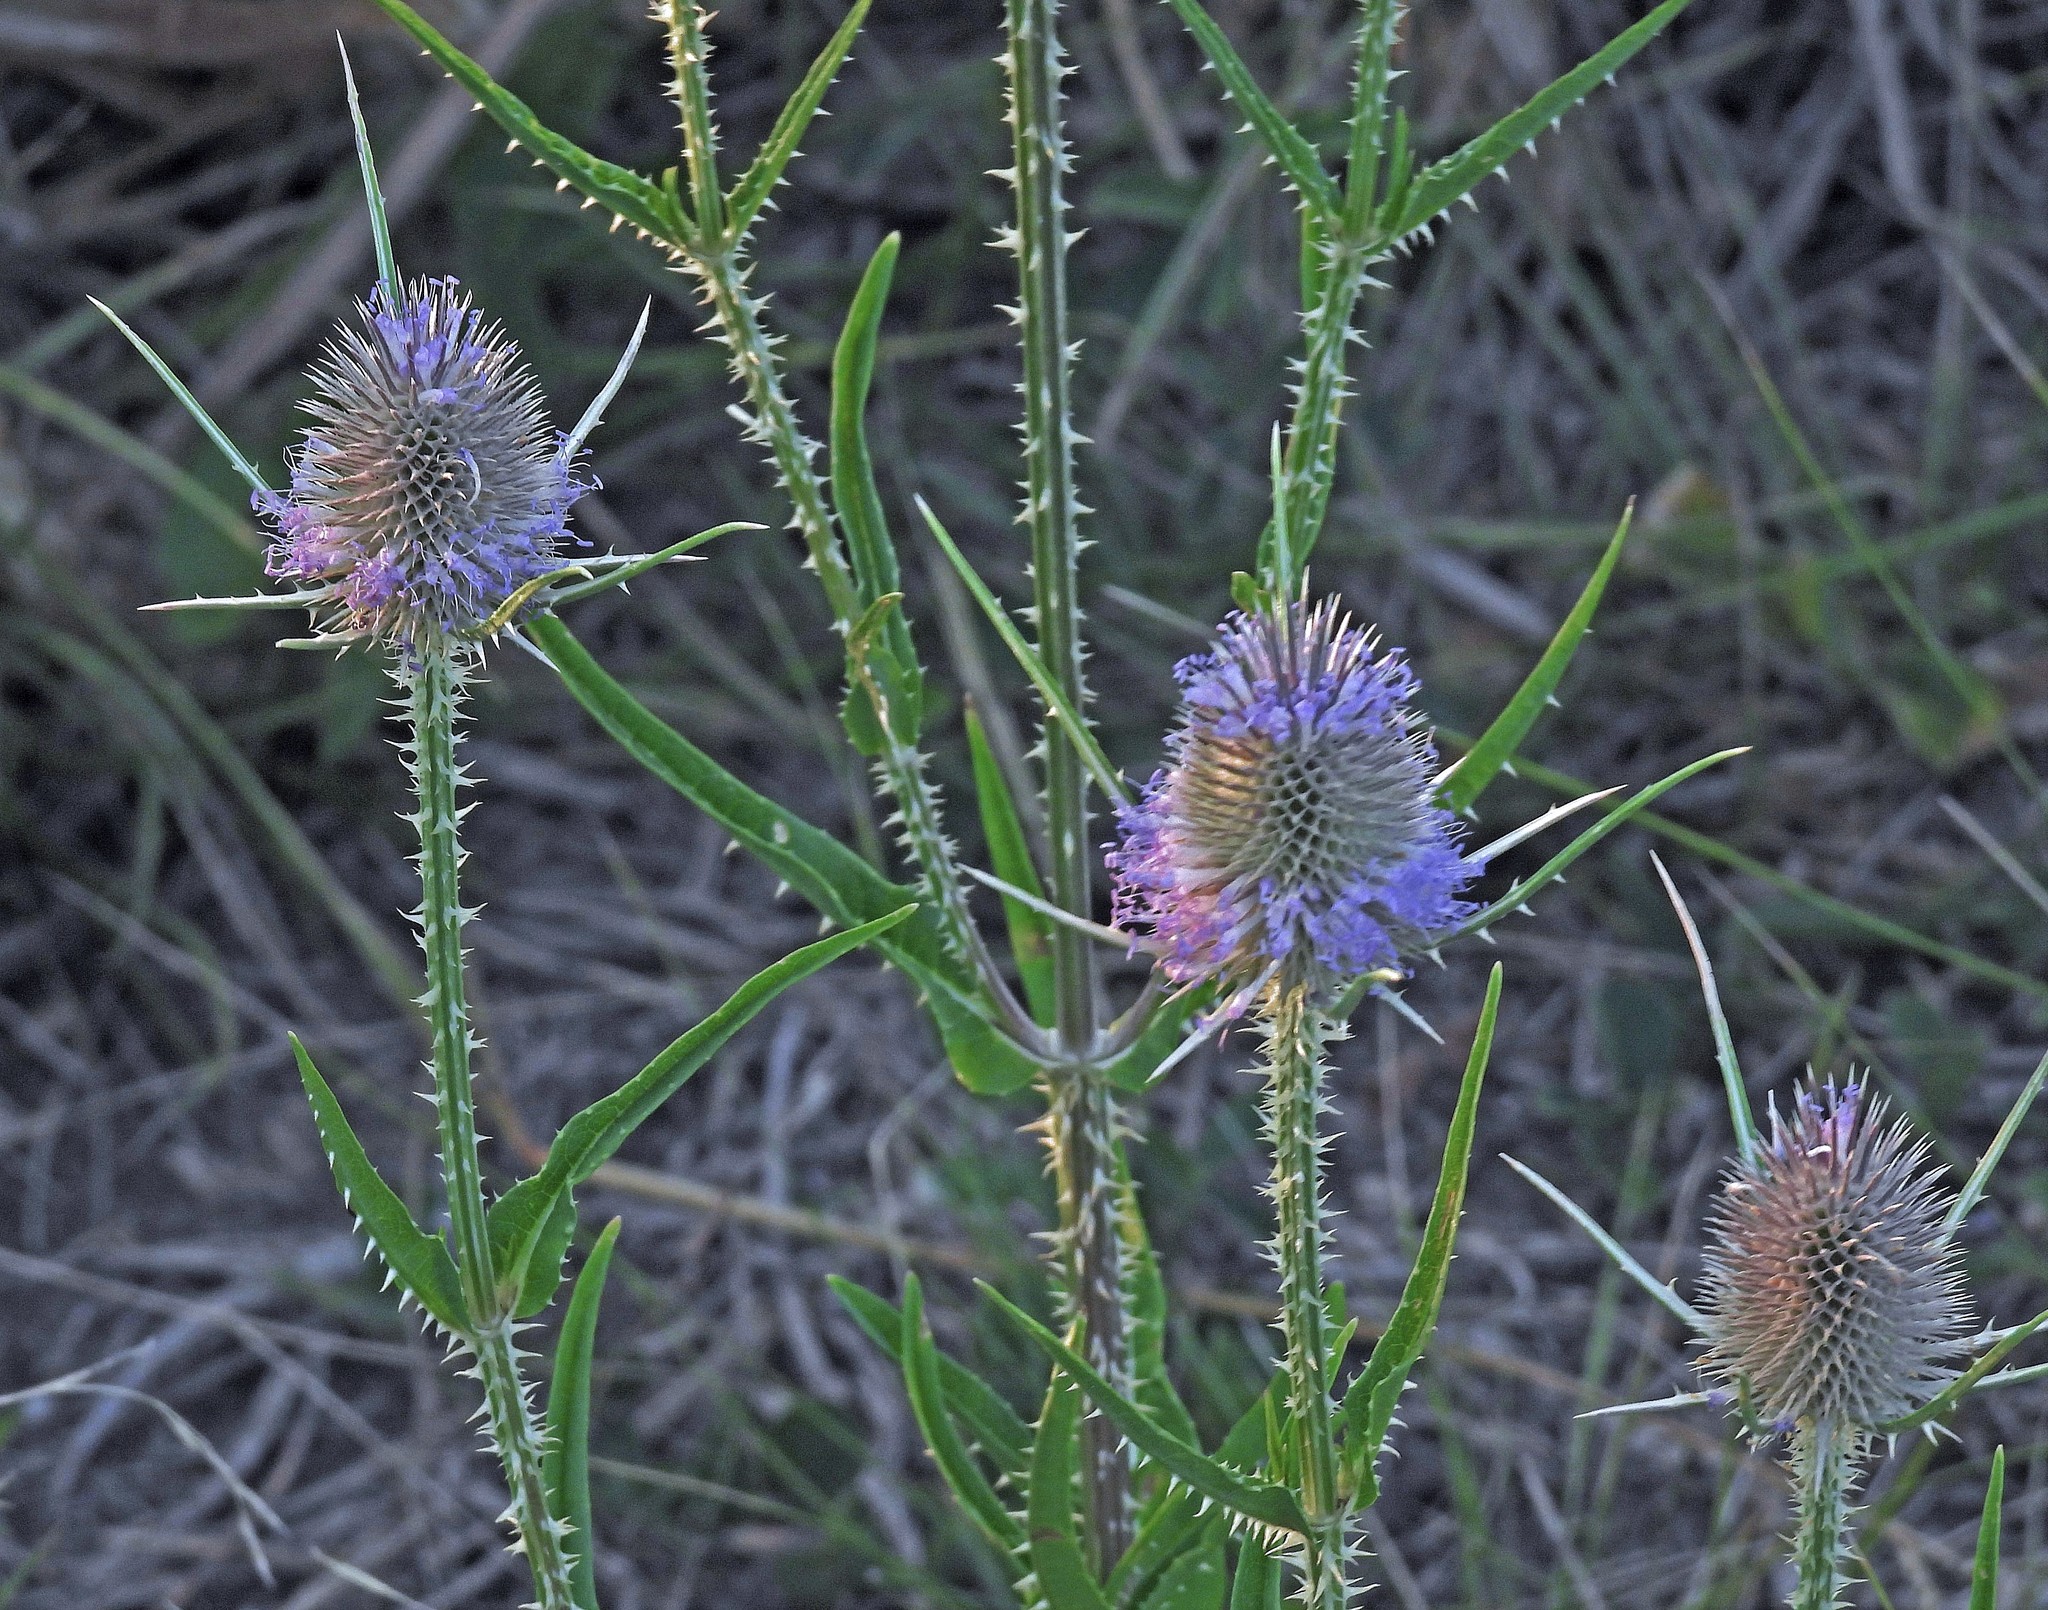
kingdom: Plantae
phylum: Tracheophyta
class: Magnoliopsida
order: Dipsacales
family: Caprifoliaceae
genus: Dipsacus
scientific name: Dipsacus fullonum
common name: Teasel
